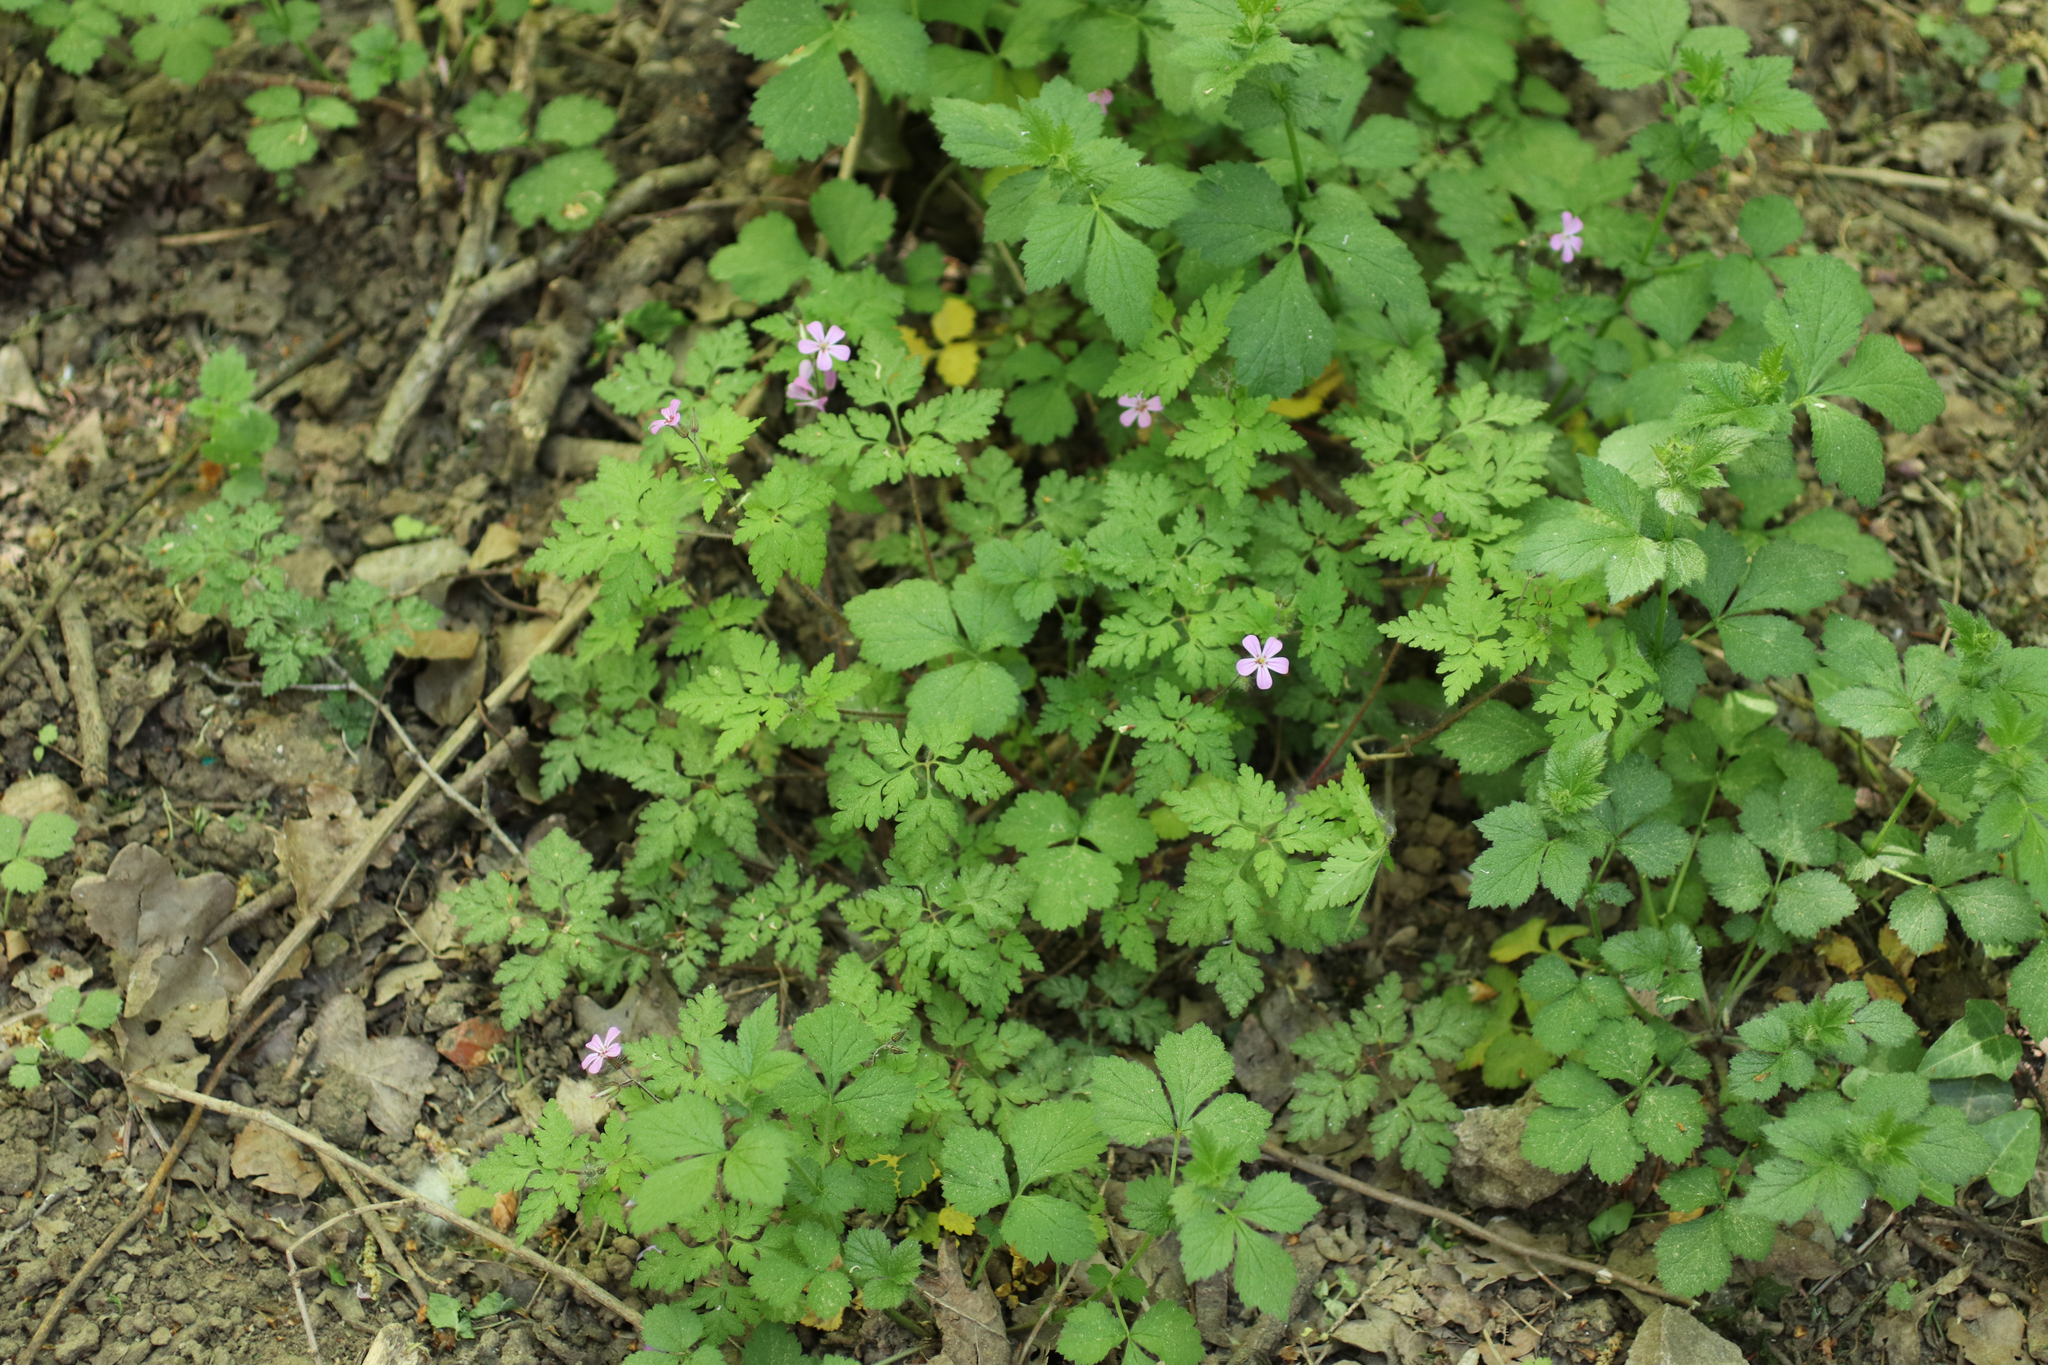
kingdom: Plantae
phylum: Tracheophyta
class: Magnoliopsida
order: Geraniales
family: Geraniaceae
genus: Geranium
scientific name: Geranium robertianum
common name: Herb-robert
